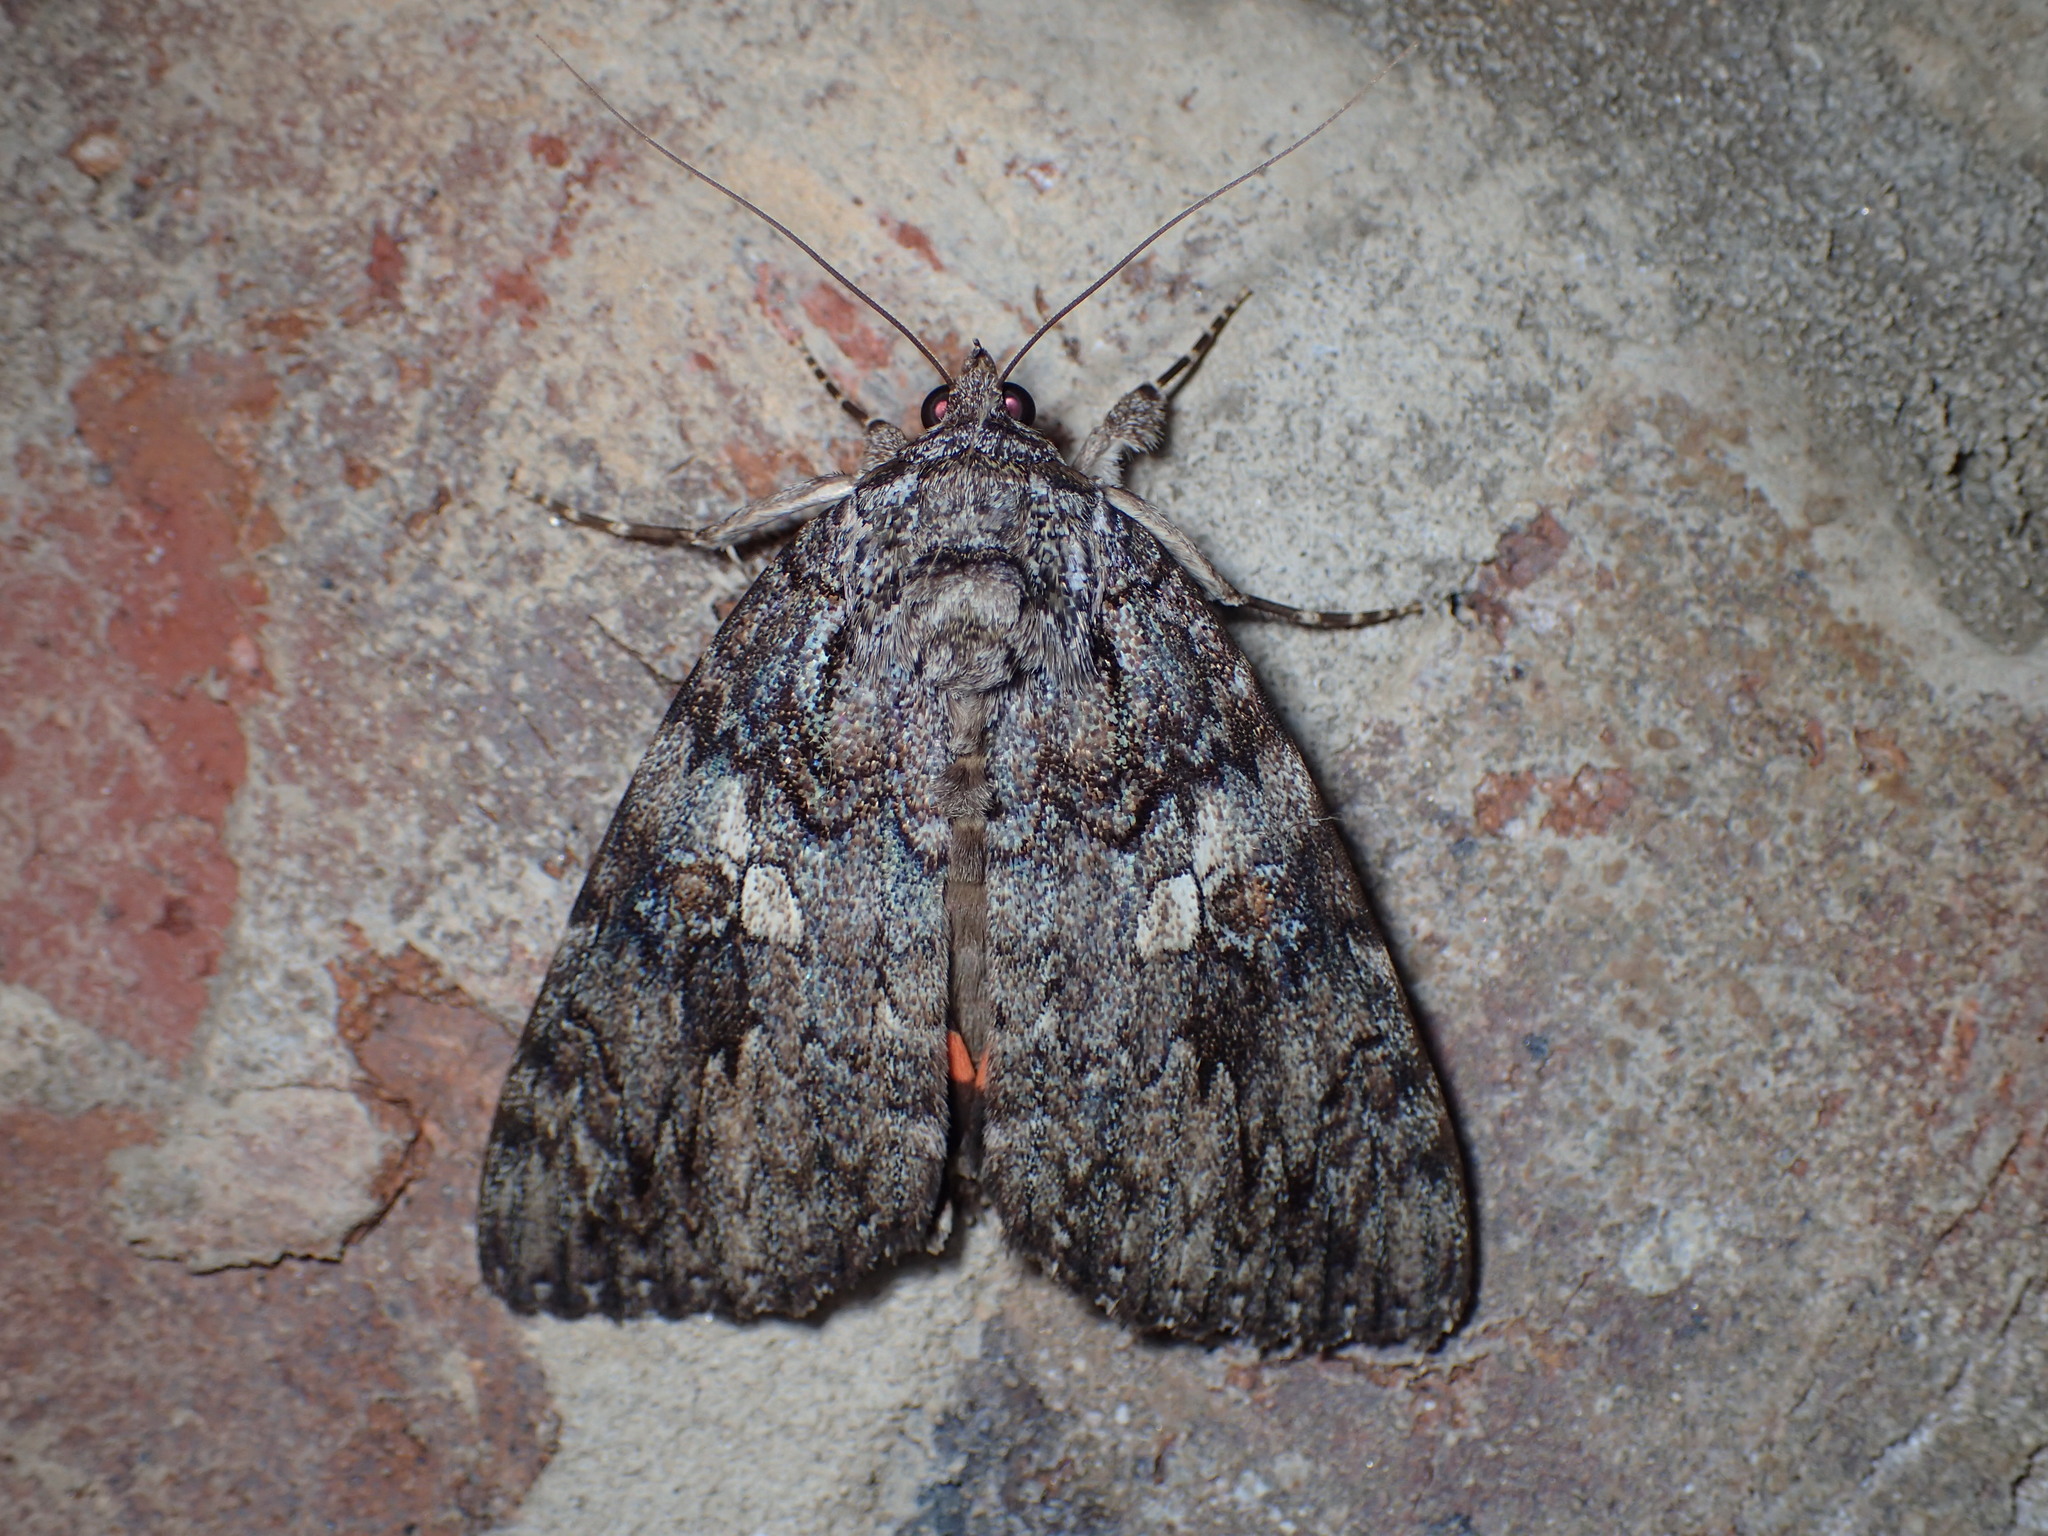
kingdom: Animalia
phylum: Arthropoda
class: Insecta
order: Lepidoptera
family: Erebidae
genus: Catocala
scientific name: Catocala ilia
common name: Ilia underwing
